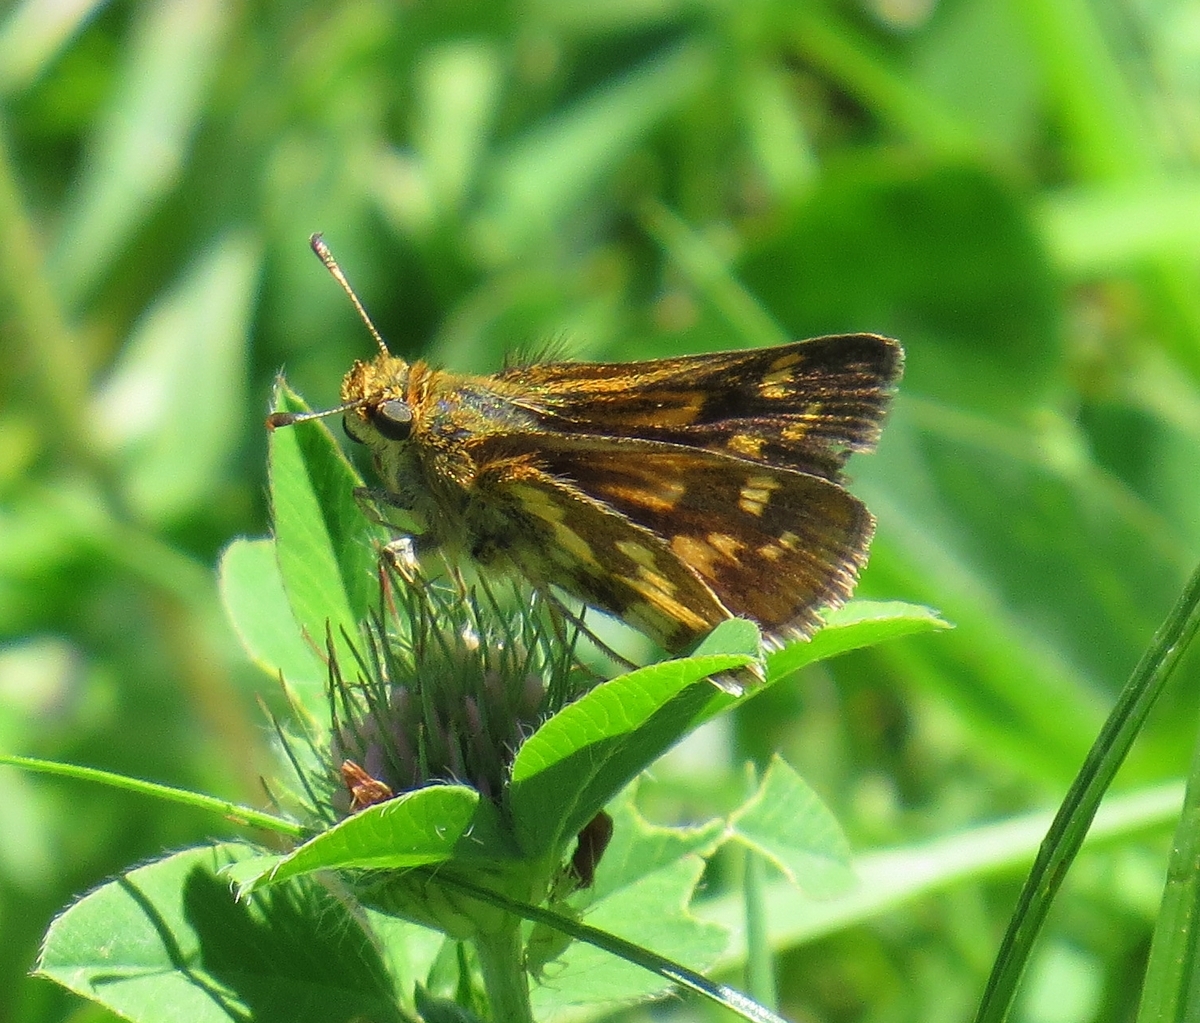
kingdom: Animalia
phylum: Arthropoda
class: Insecta
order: Lepidoptera
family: Hesperiidae
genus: Polites
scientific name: Polites coras
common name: Peck's skipper
